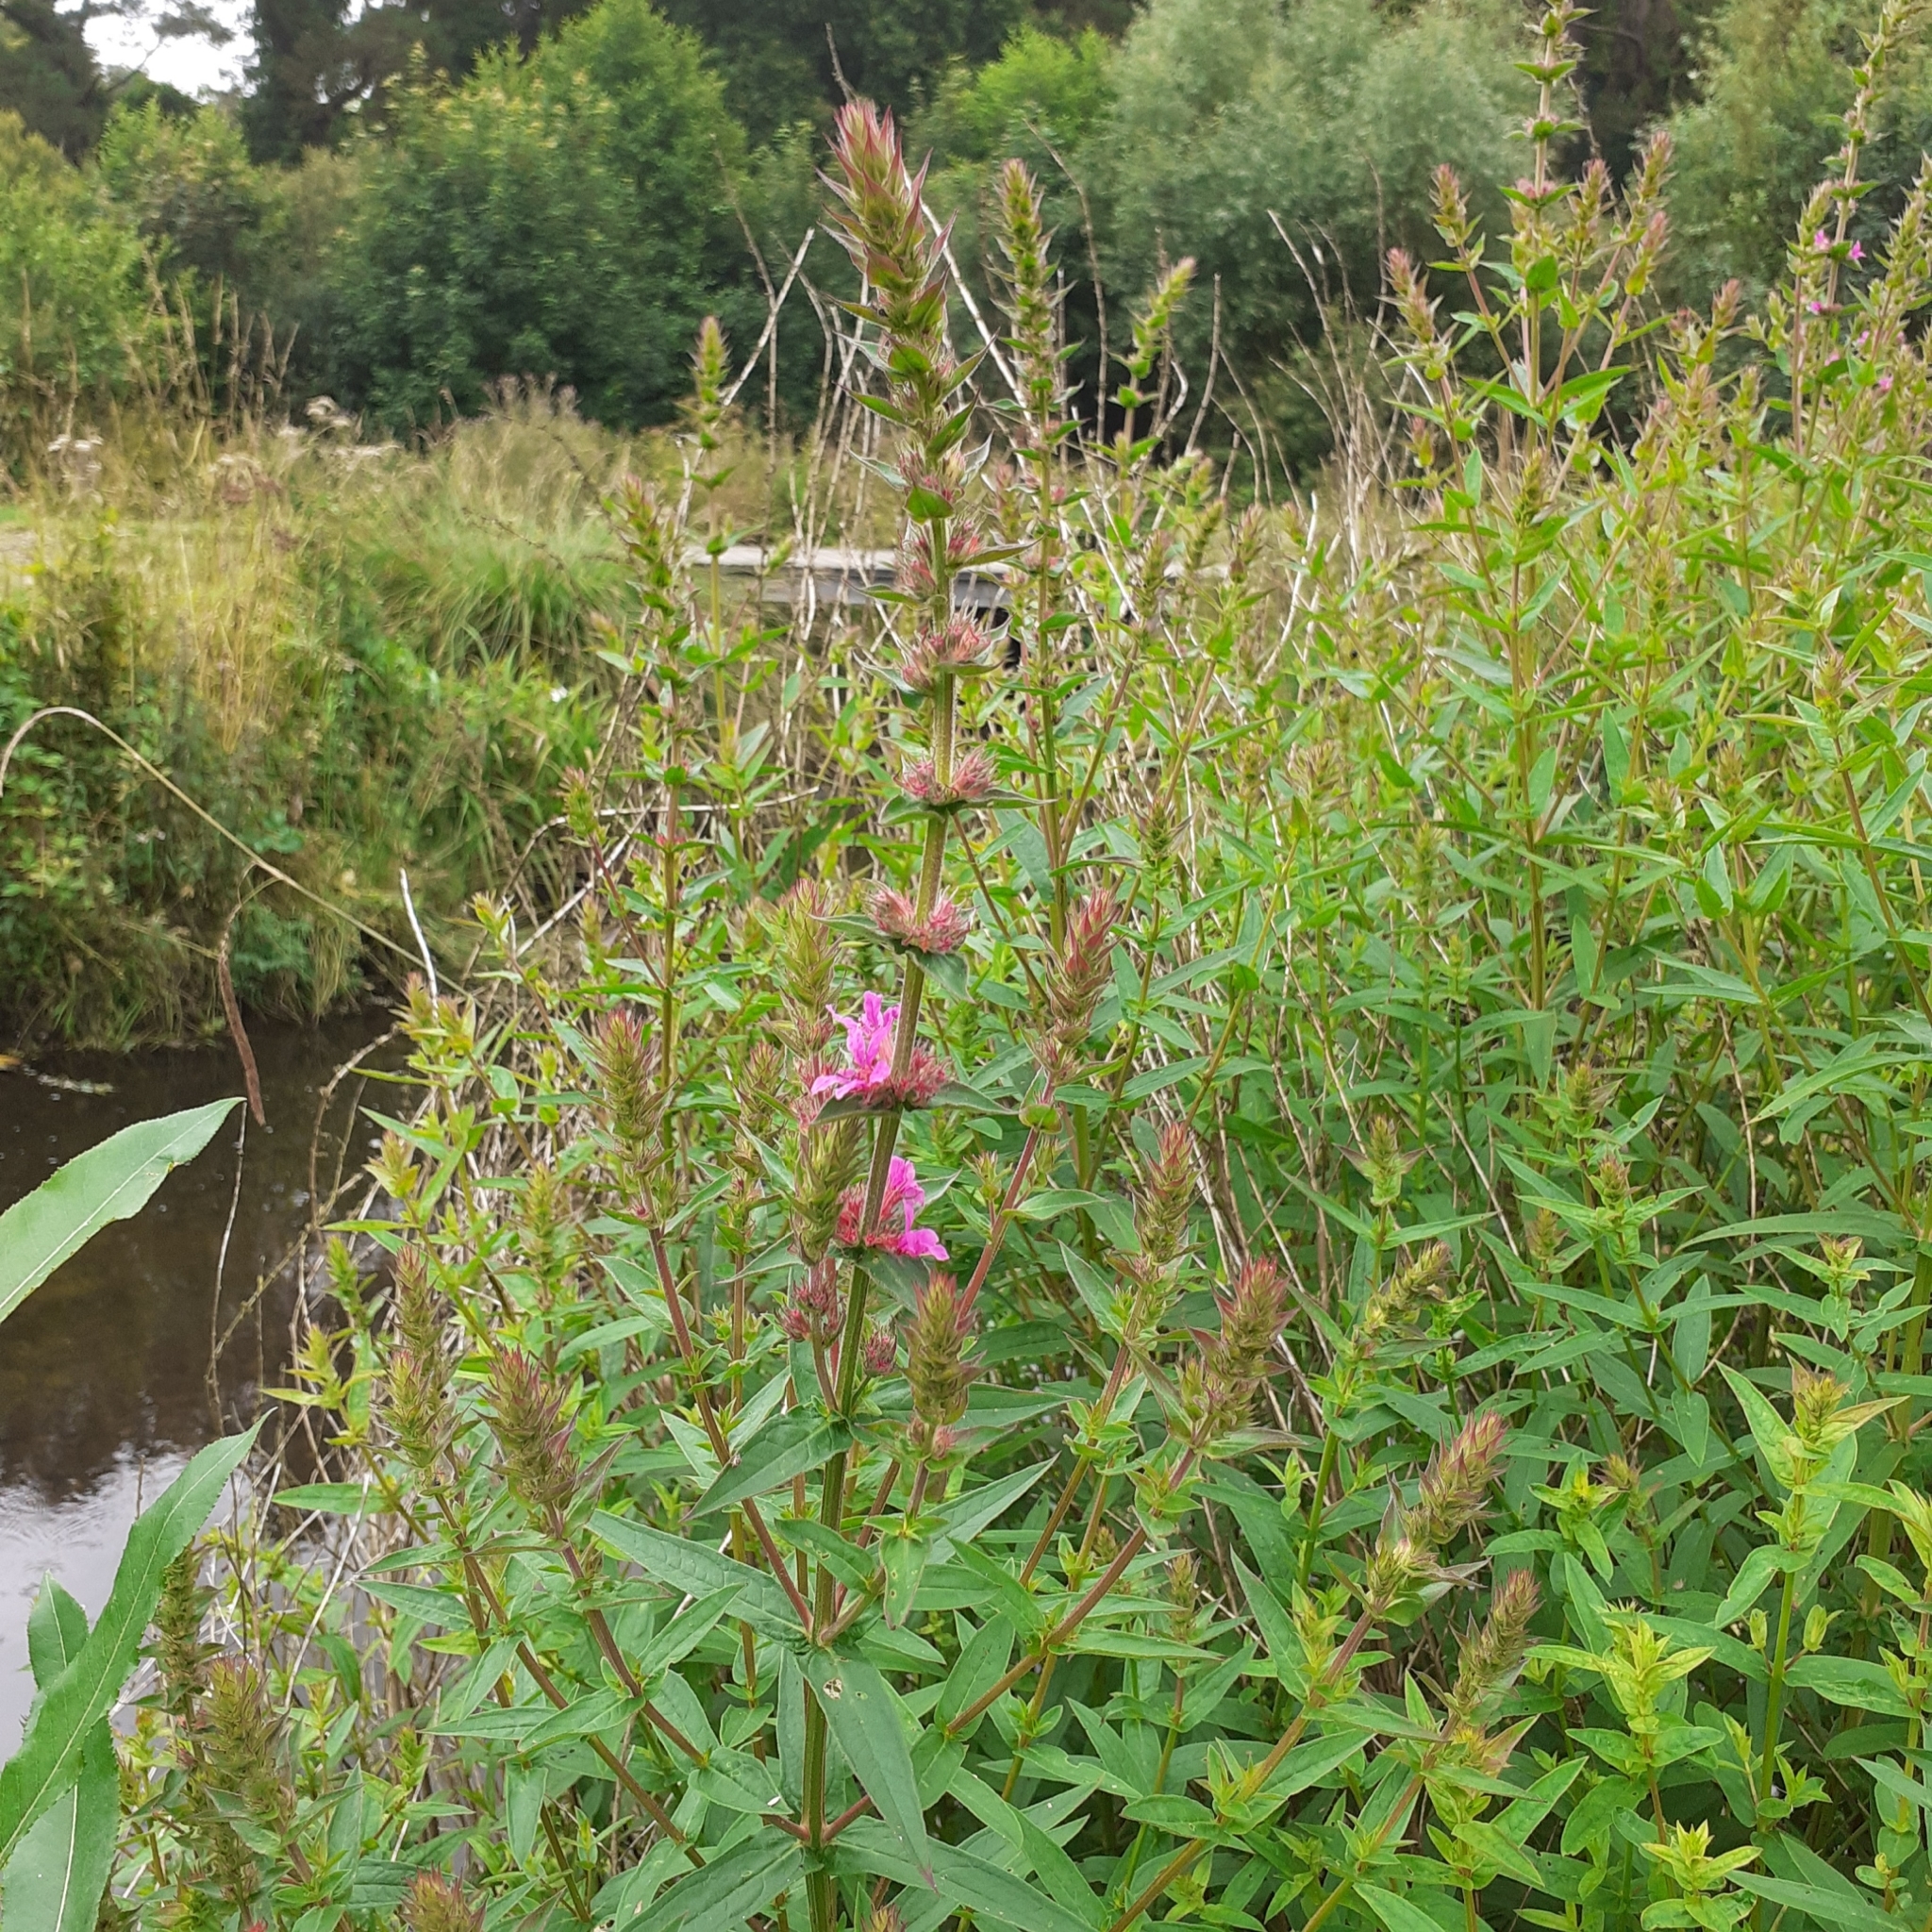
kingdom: Plantae
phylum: Tracheophyta
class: Magnoliopsida
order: Myrtales
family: Lythraceae
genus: Lythrum
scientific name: Lythrum salicaria
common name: Purple loosestrife
